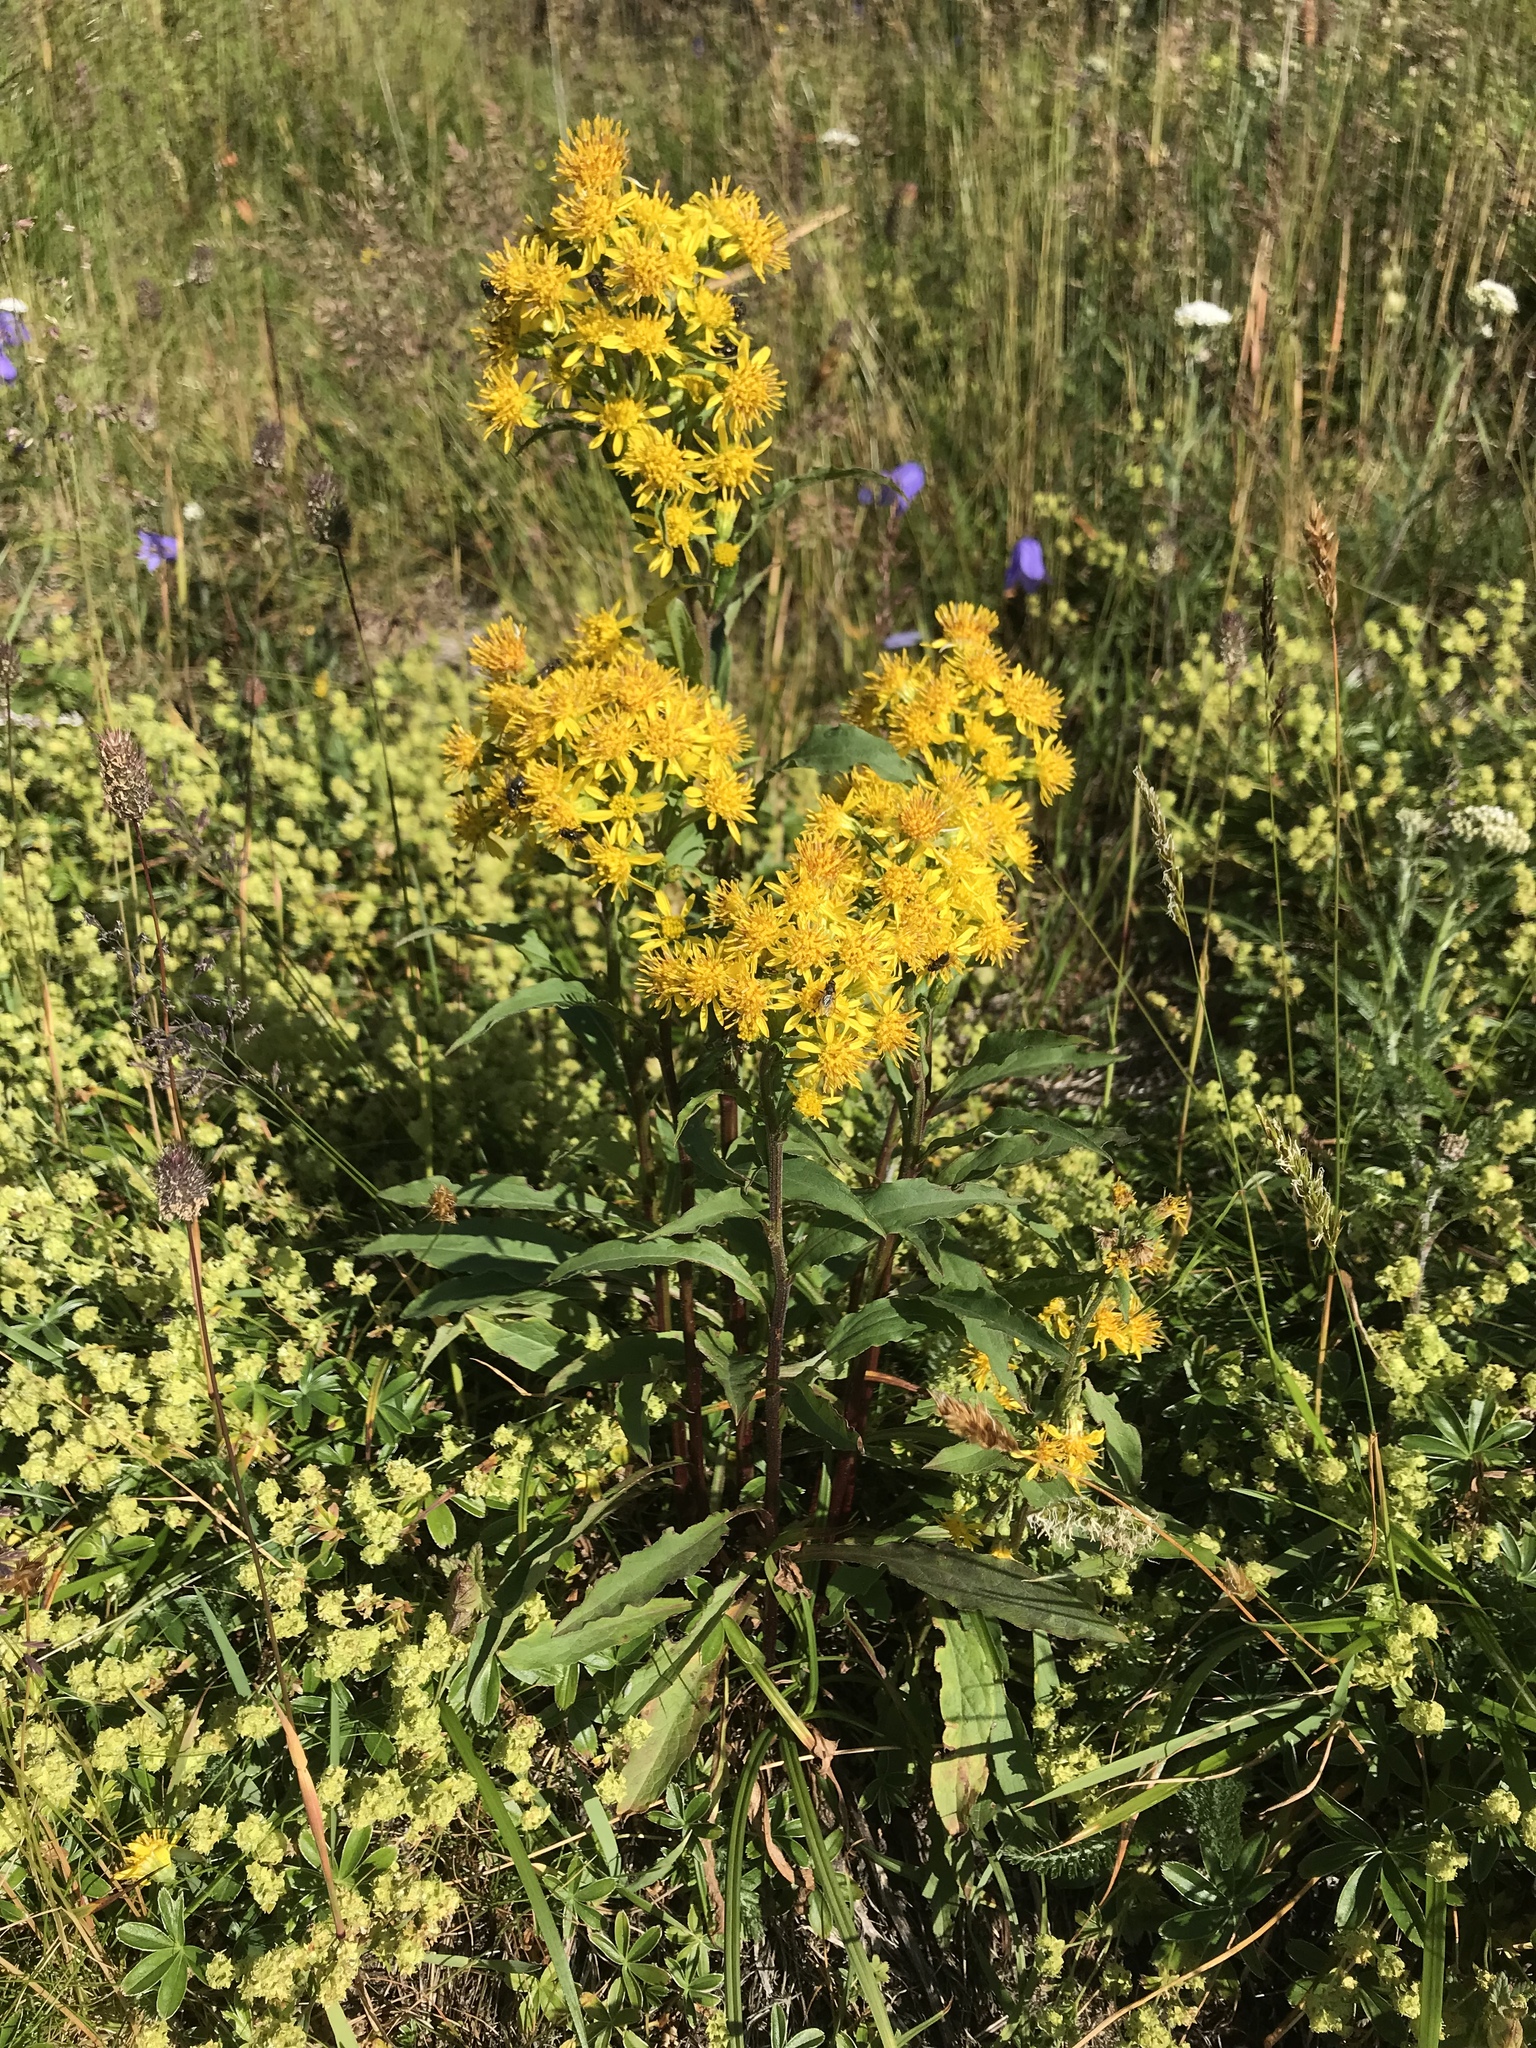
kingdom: Plantae
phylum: Tracheophyta
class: Magnoliopsida
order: Asterales
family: Asteraceae
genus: Solidago
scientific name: Solidago virgaurea
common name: Goldenrod
